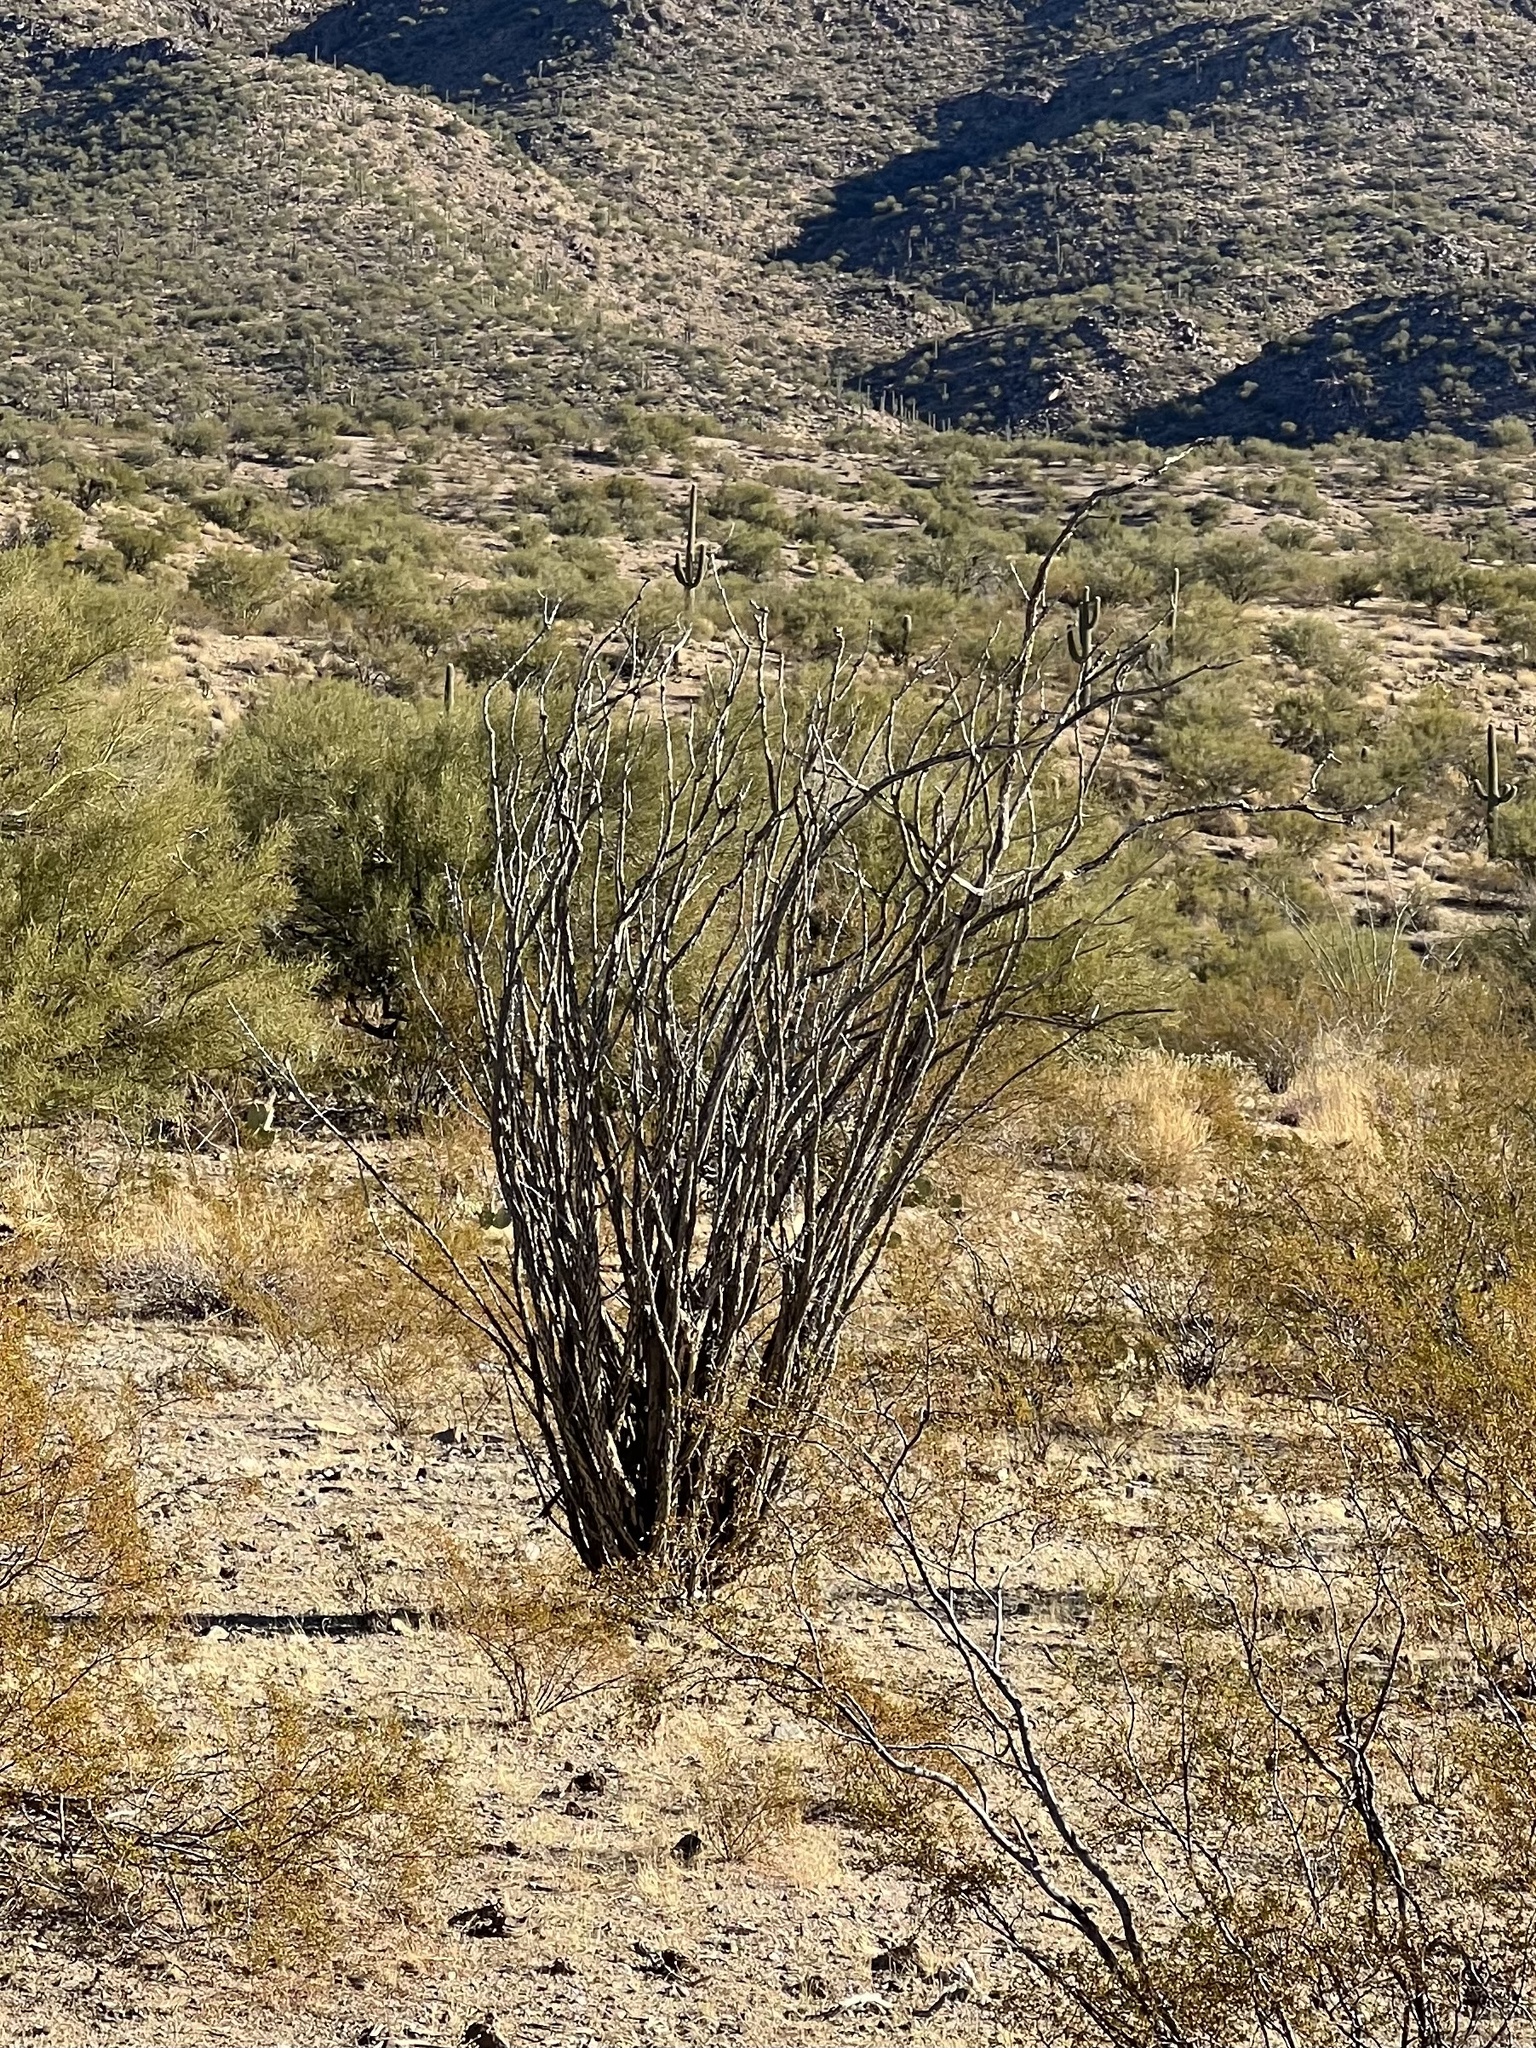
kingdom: Plantae
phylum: Tracheophyta
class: Magnoliopsida
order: Ericales
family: Fouquieriaceae
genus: Fouquieria
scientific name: Fouquieria splendens
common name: Vine-cactus
